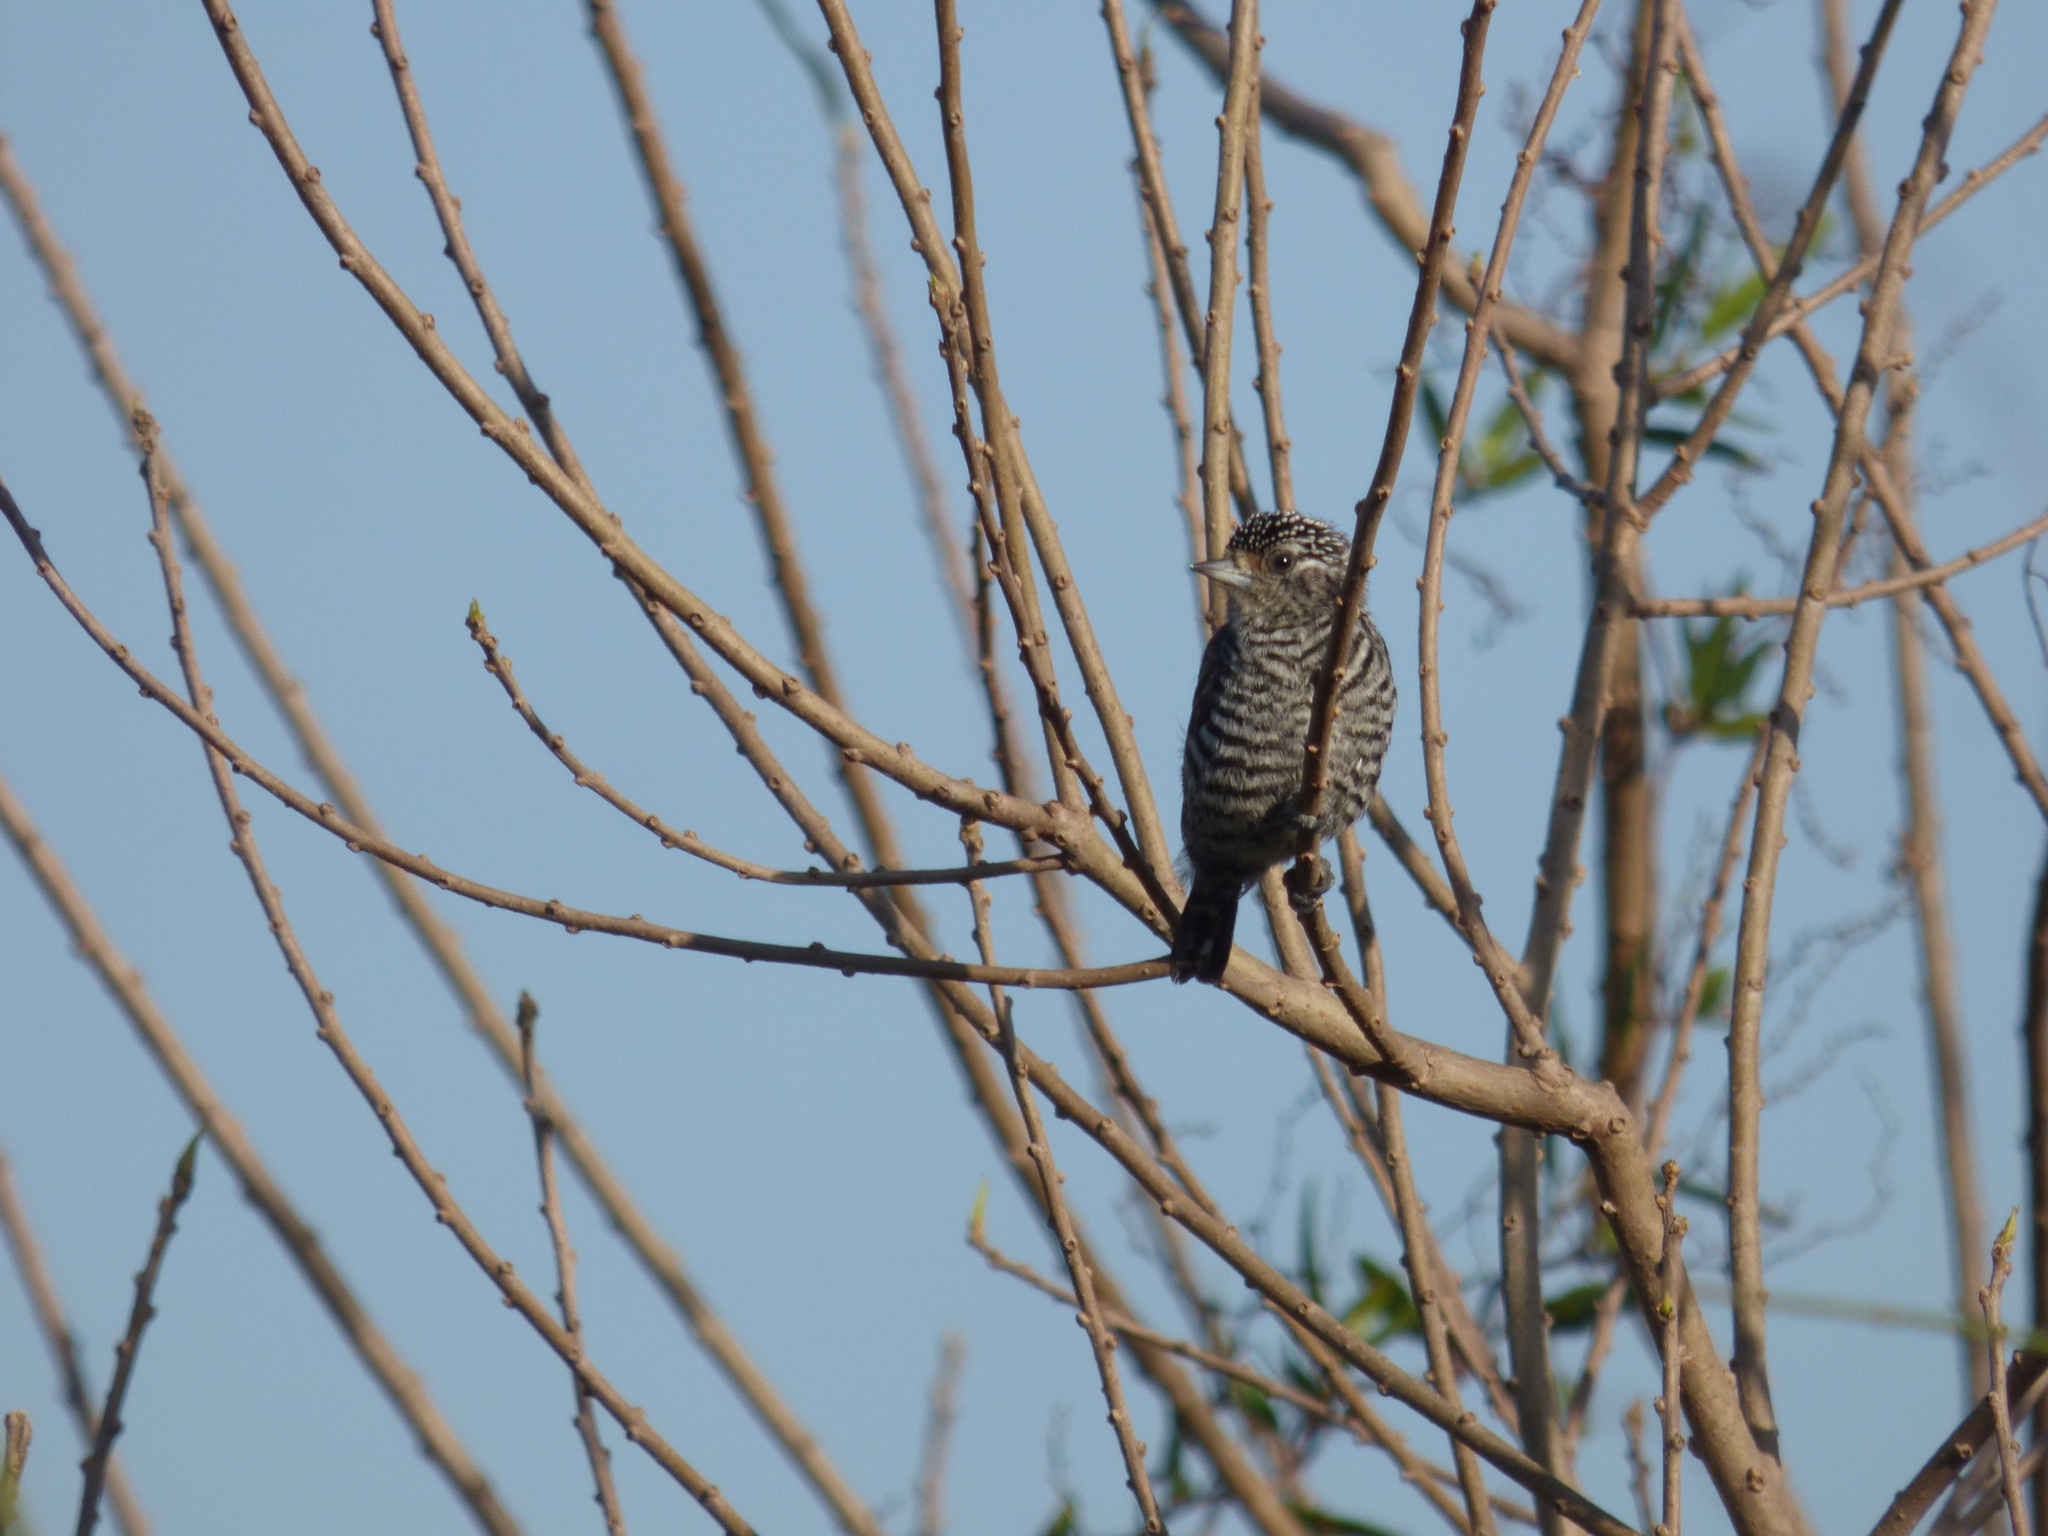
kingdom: Animalia
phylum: Chordata
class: Aves
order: Piciformes
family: Picidae
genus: Picumnus
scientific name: Picumnus cirratus
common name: White-barred piculet
